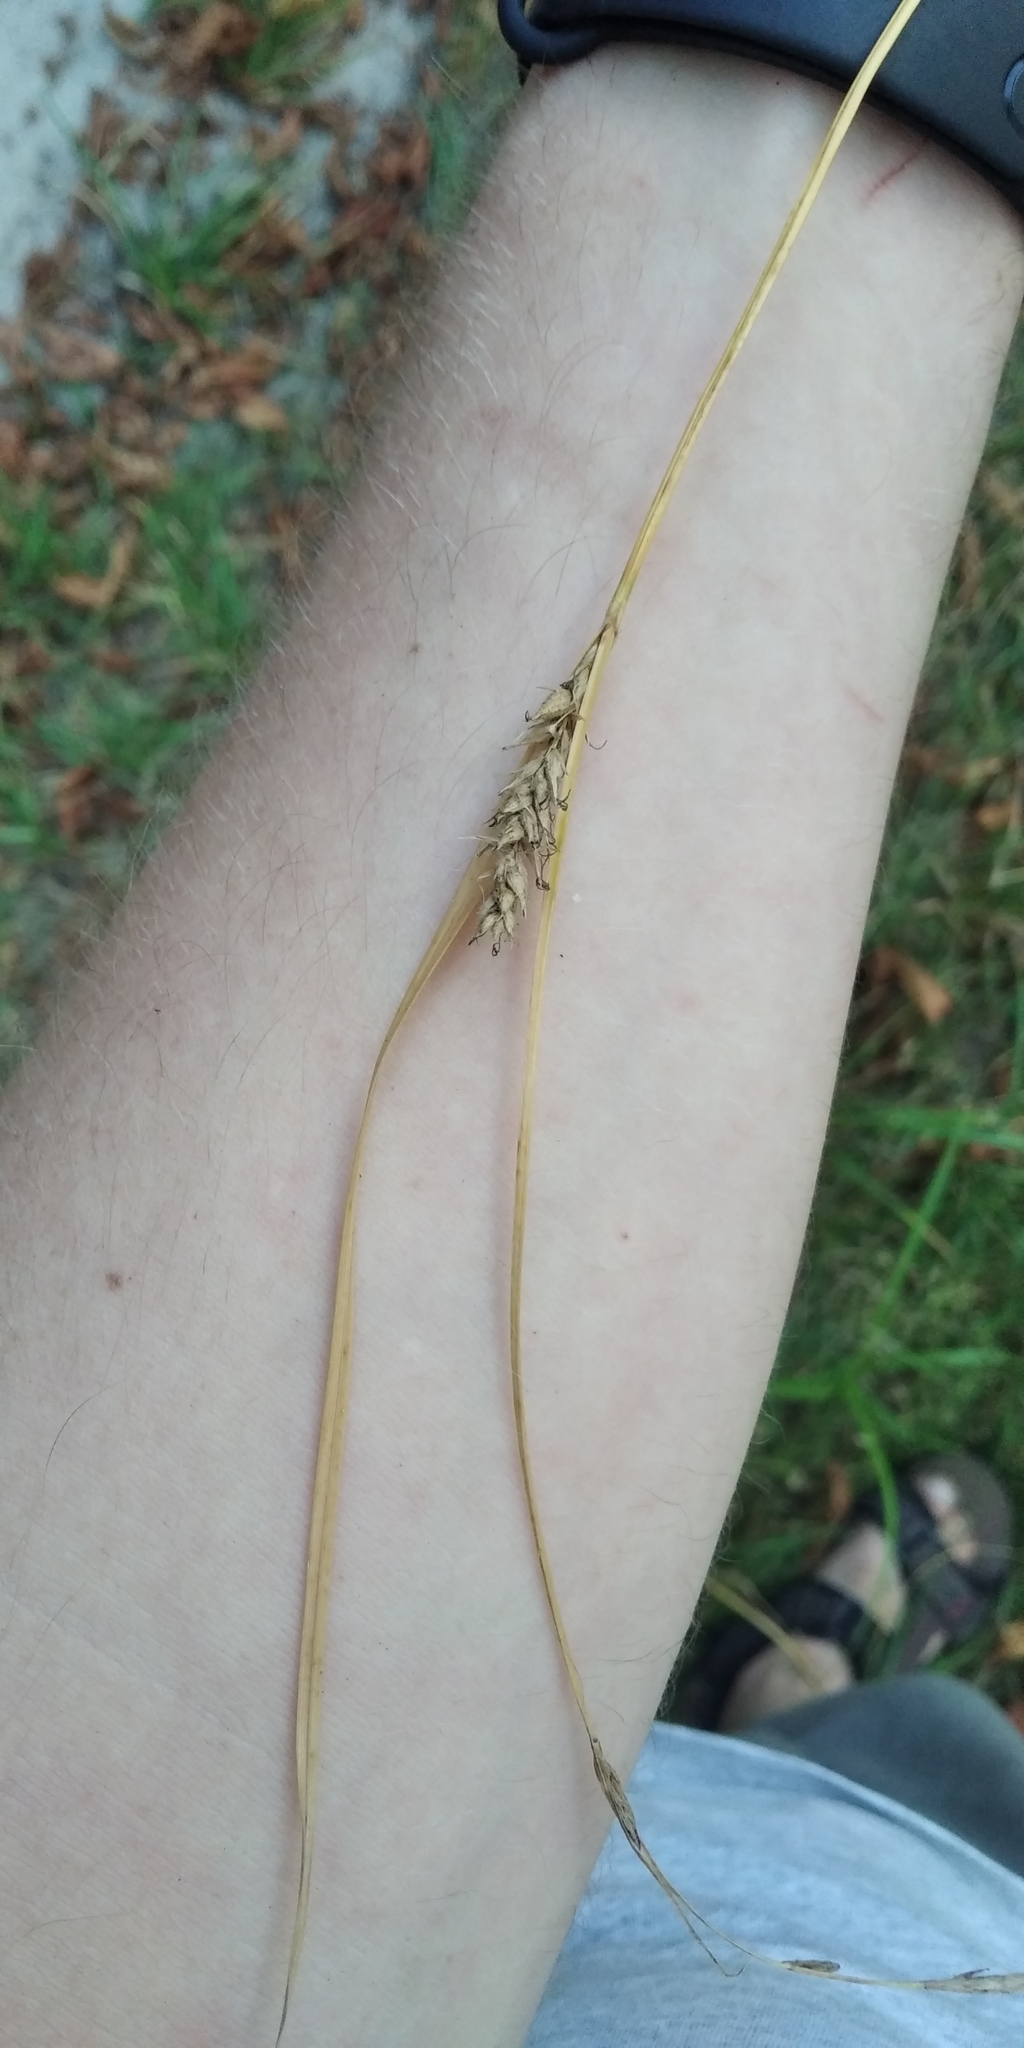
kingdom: Plantae
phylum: Tracheophyta
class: Liliopsida
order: Poales
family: Cyperaceae
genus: Carex
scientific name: Carex hirta
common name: Hairy sedge
